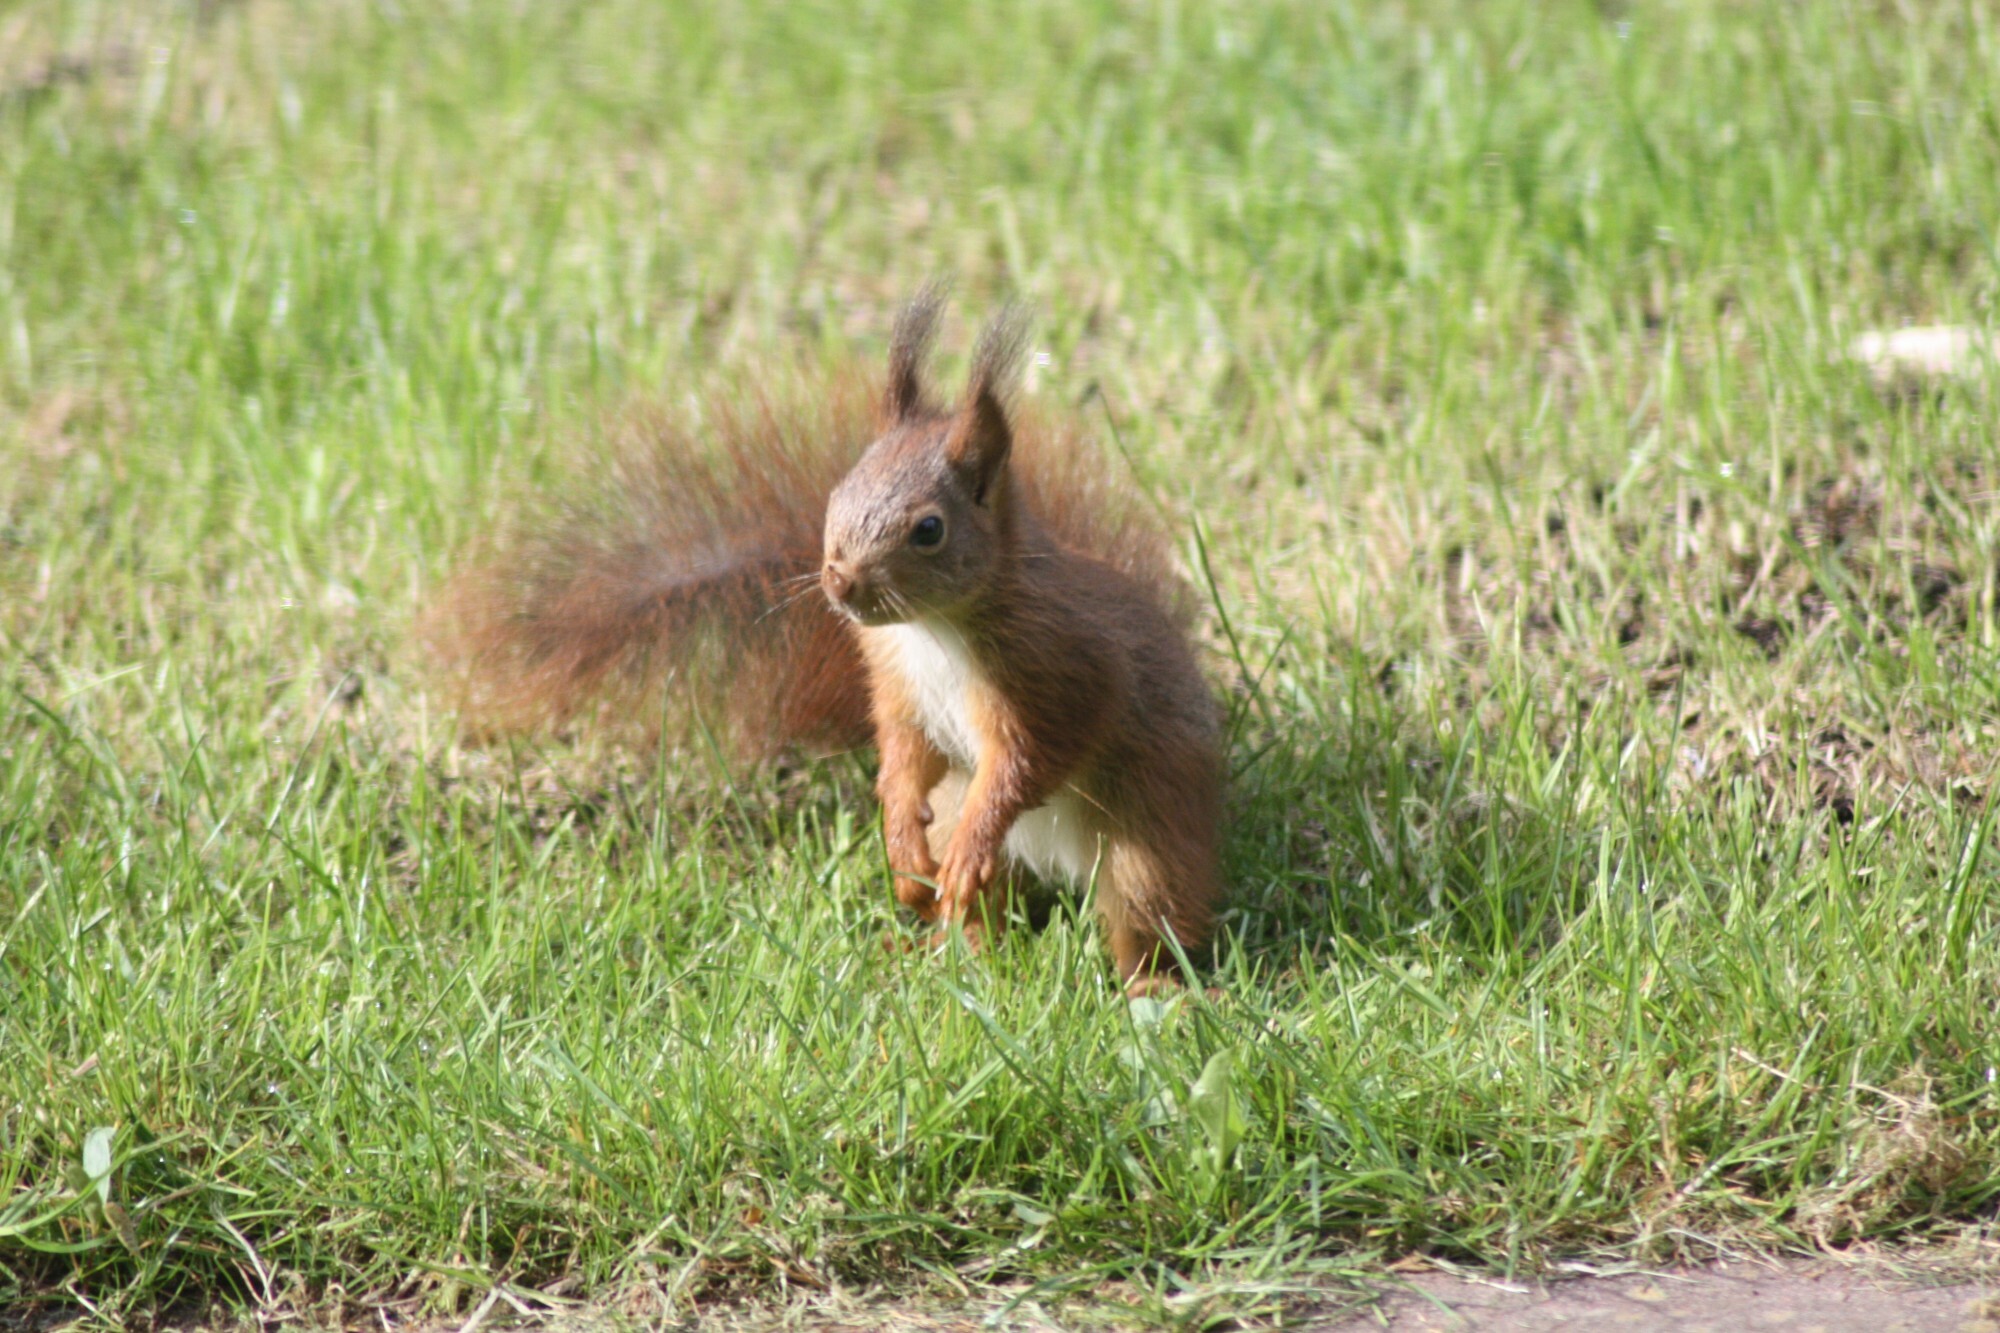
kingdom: Animalia
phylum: Chordata
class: Mammalia
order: Rodentia
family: Sciuridae
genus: Sciurus
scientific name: Sciurus vulgaris
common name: Eurasian red squirrel
